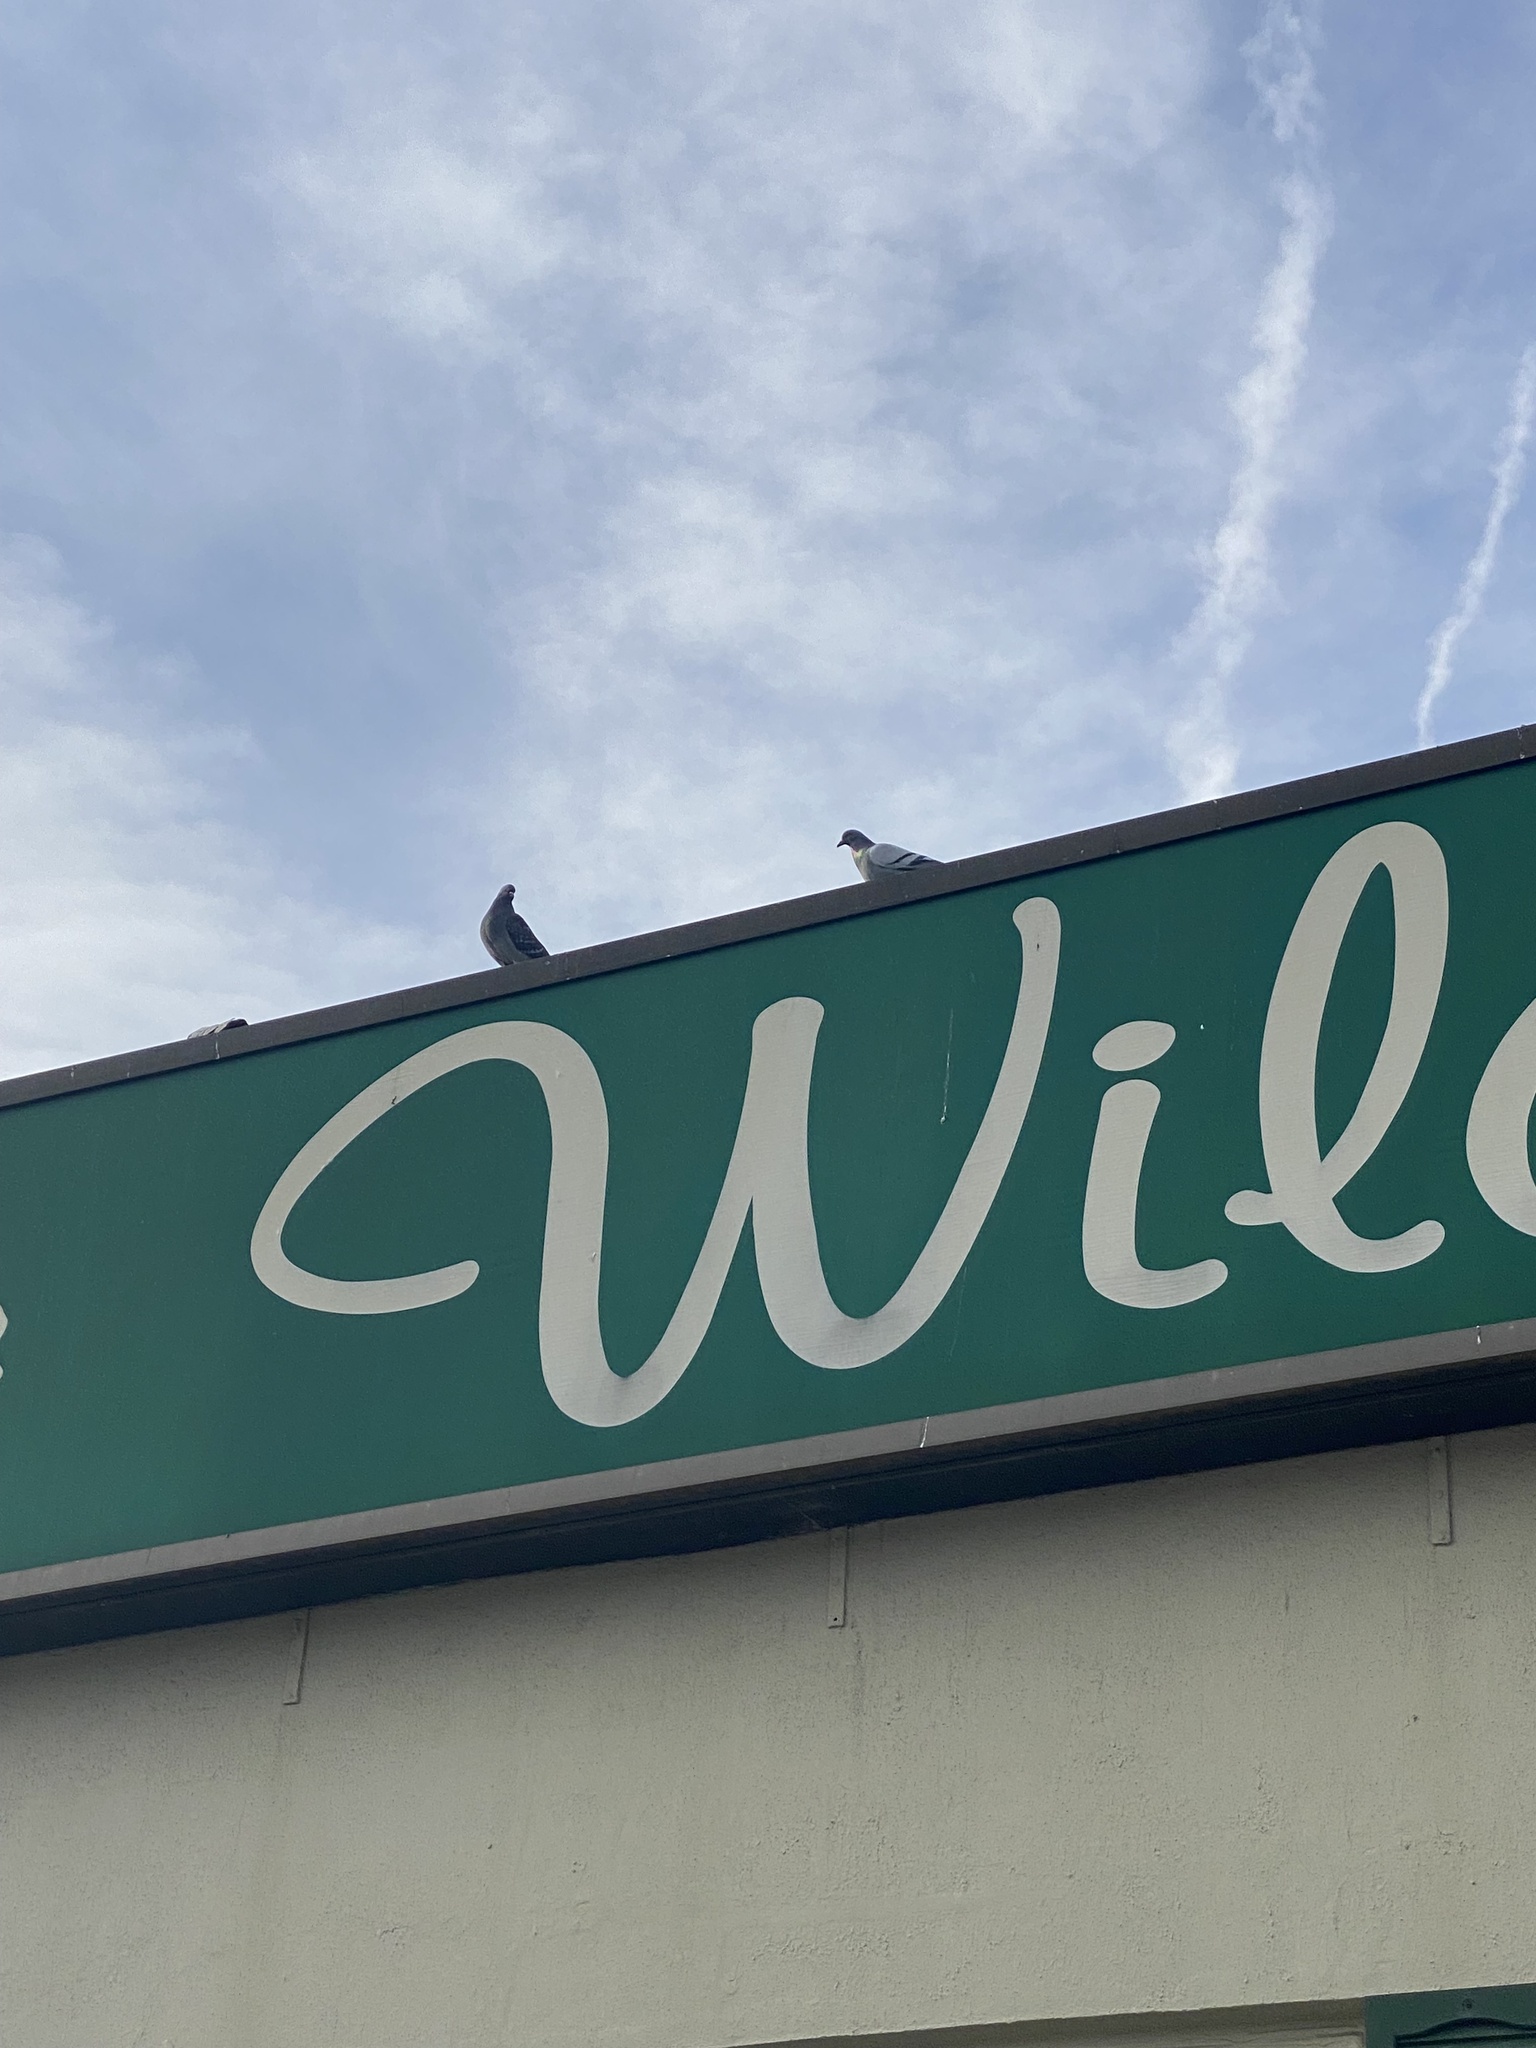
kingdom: Animalia
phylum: Chordata
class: Aves
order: Columbiformes
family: Columbidae
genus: Columba
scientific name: Columba livia
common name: Rock pigeon
